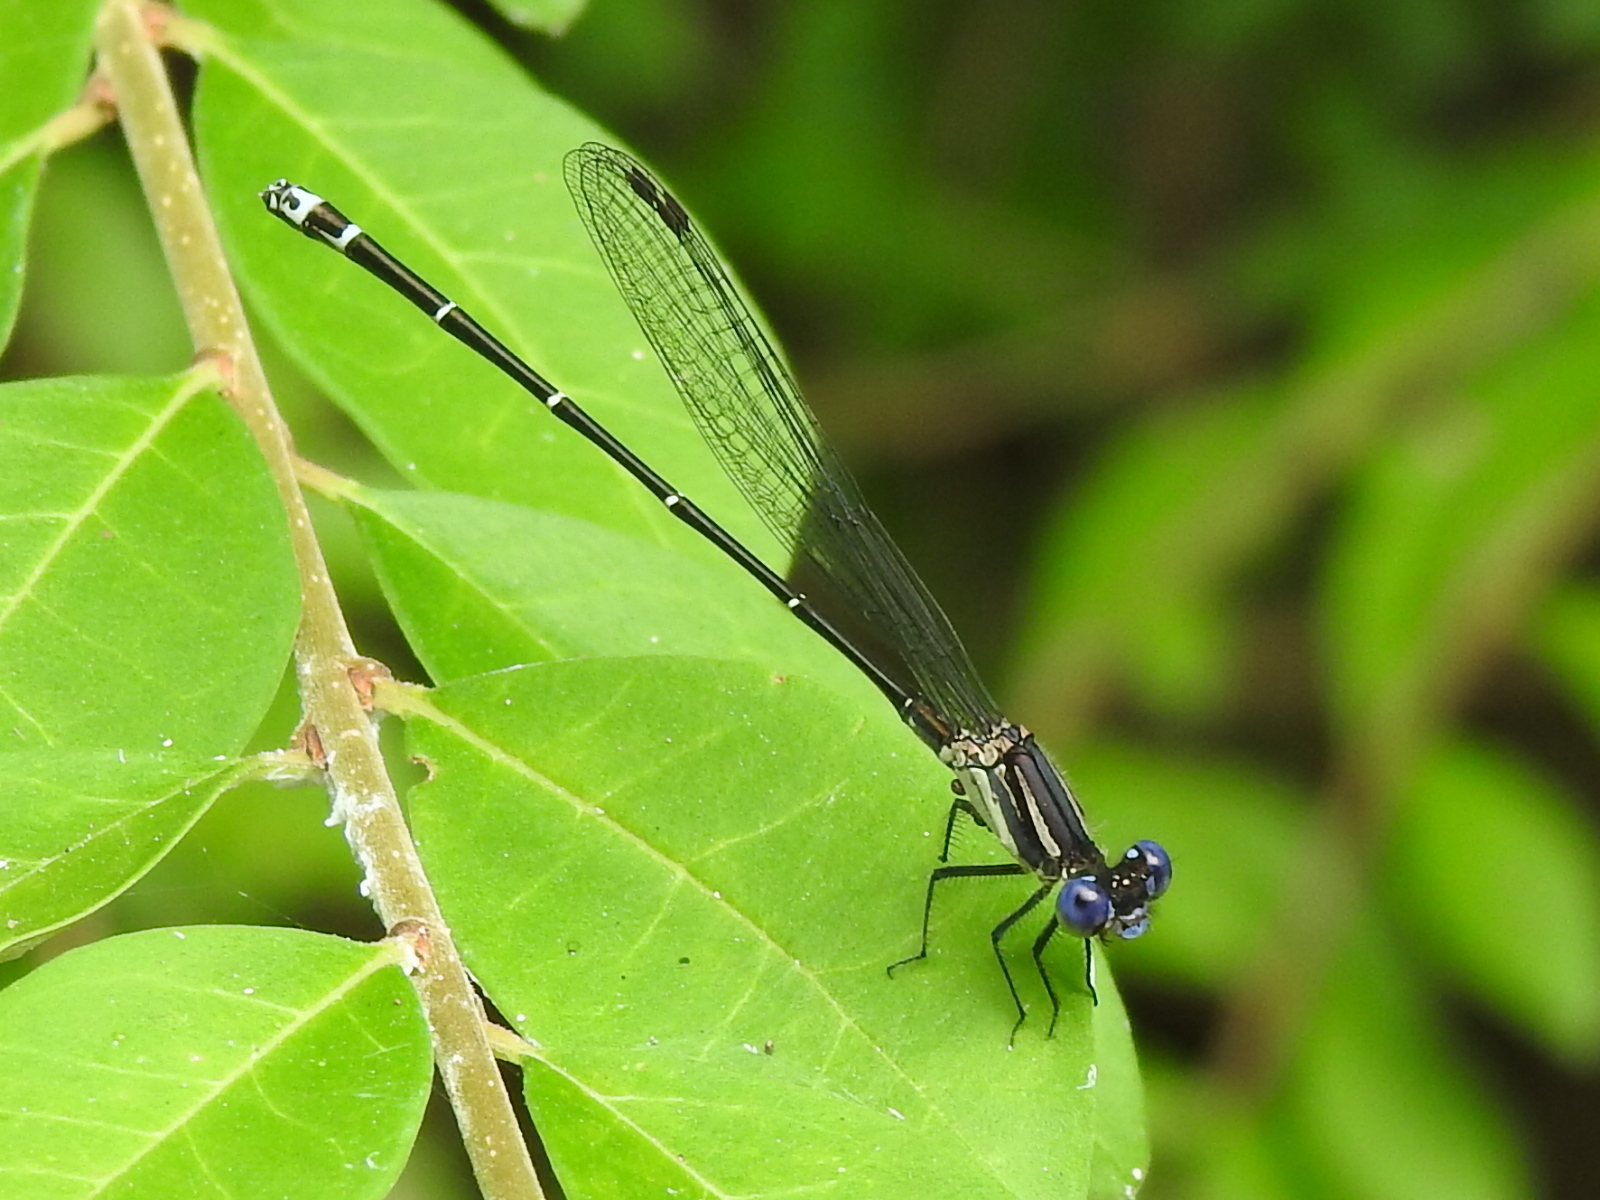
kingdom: Animalia
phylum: Arthropoda
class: Insecta
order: Odonata
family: Coenagrionidae
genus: Argia
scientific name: Argia translata
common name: Dusky dancer
